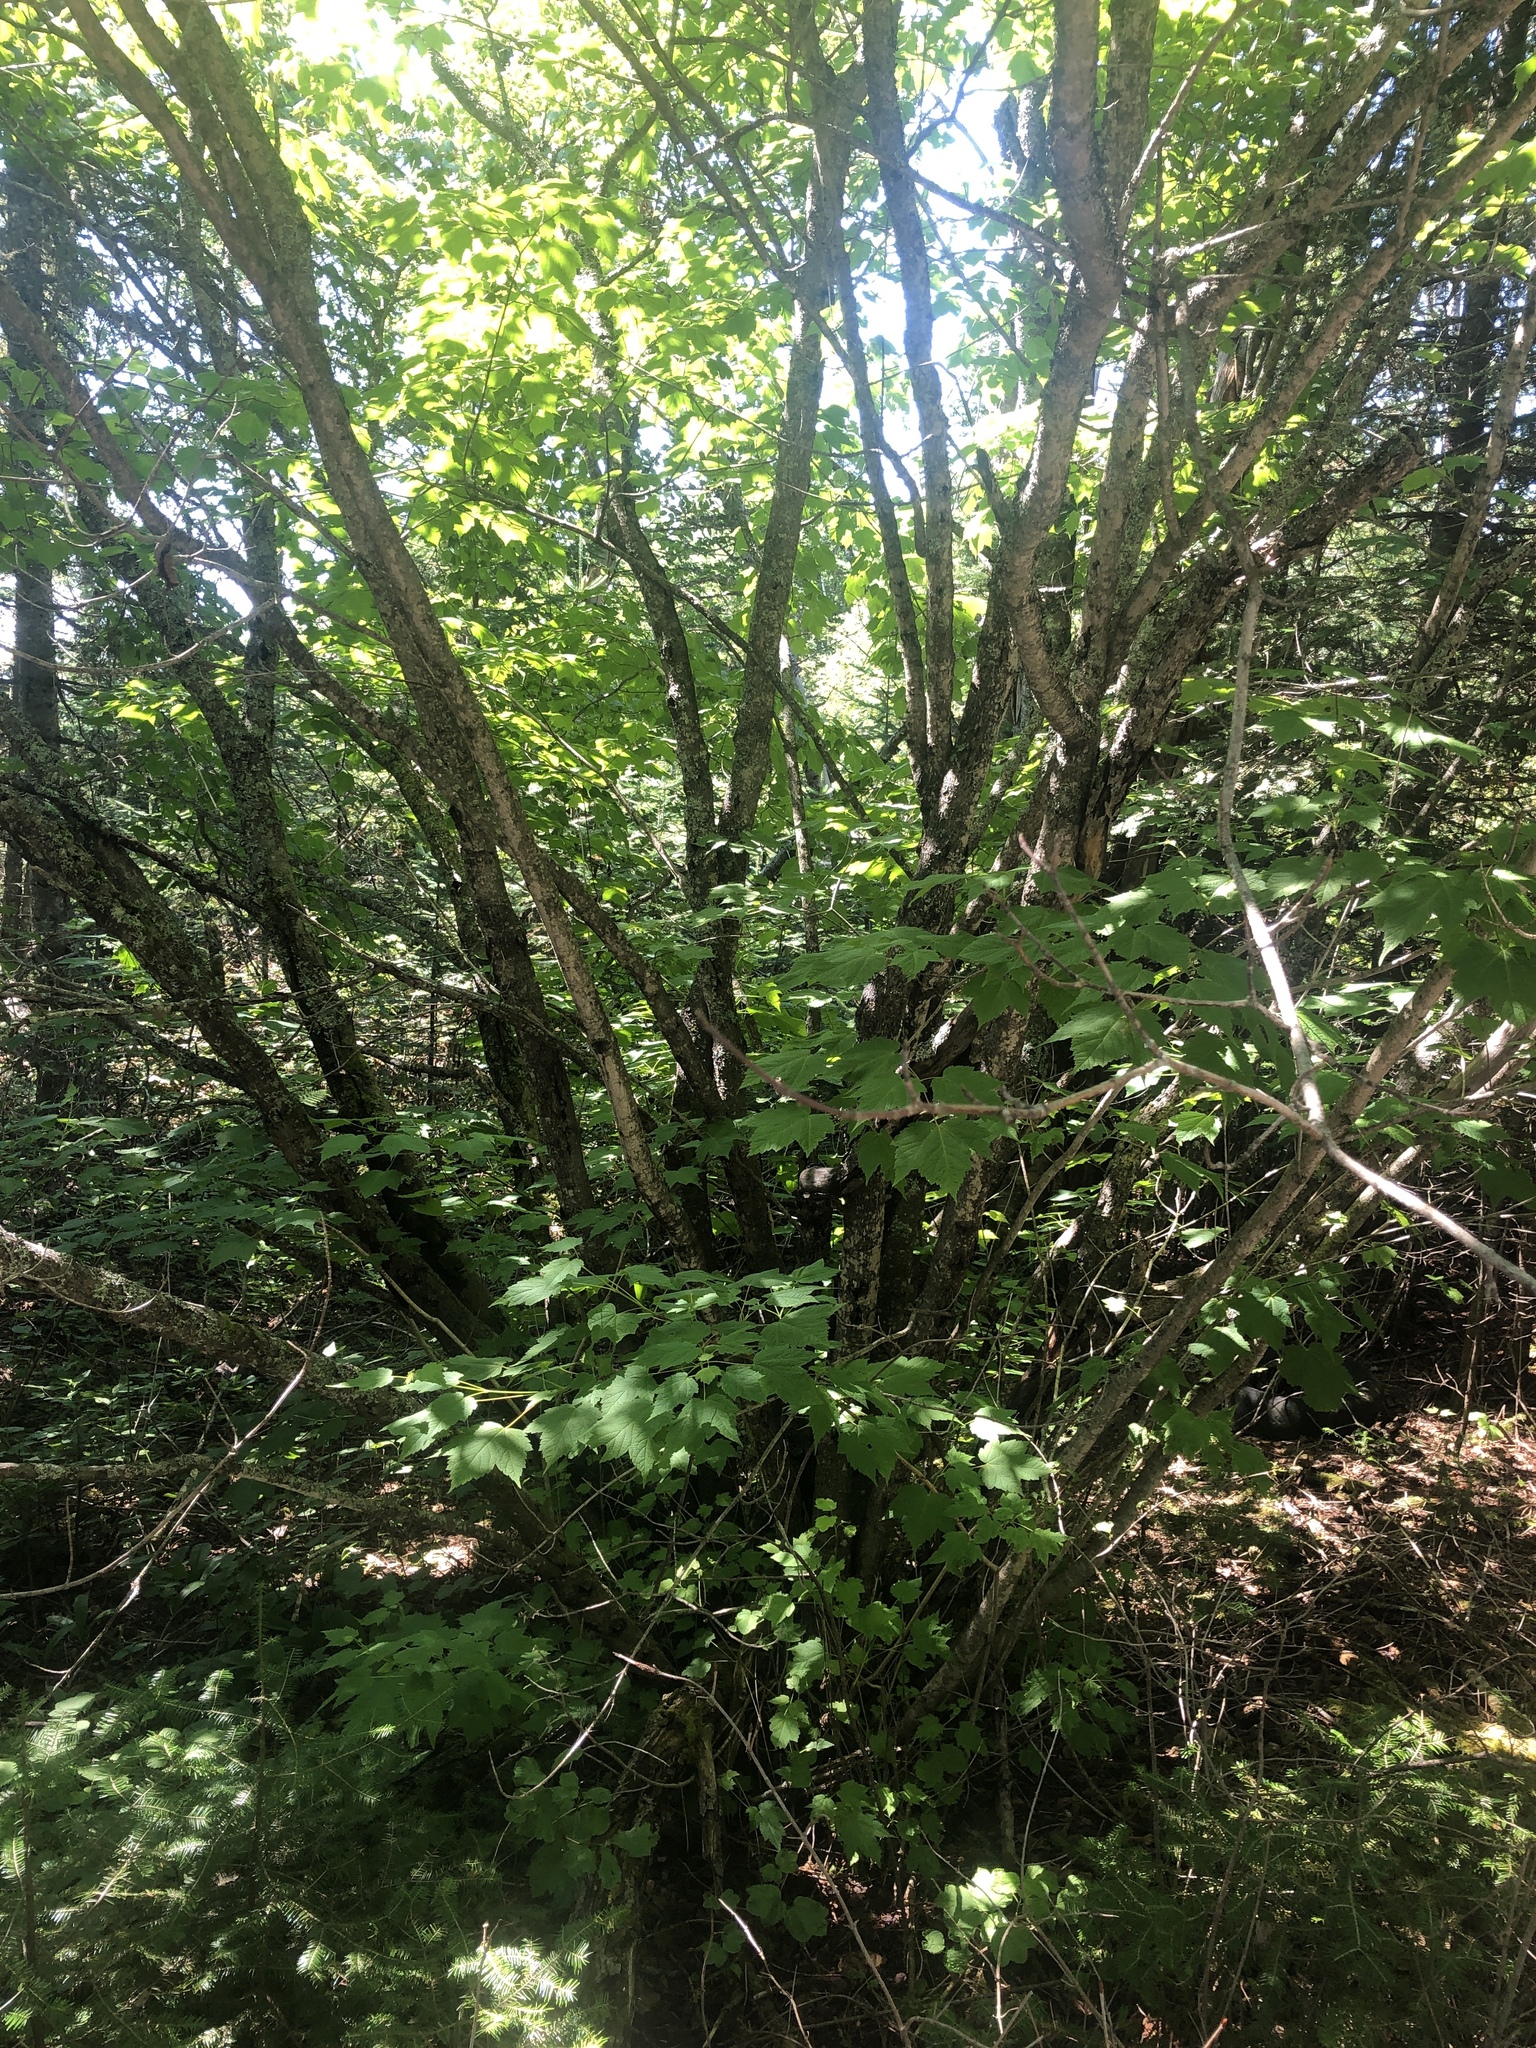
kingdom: Plantae
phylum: Tracheophyta
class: Magnoliopsida
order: Sapindales
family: Sapindaceae
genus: Acer
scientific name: Acer spicatum
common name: Mountain maple
